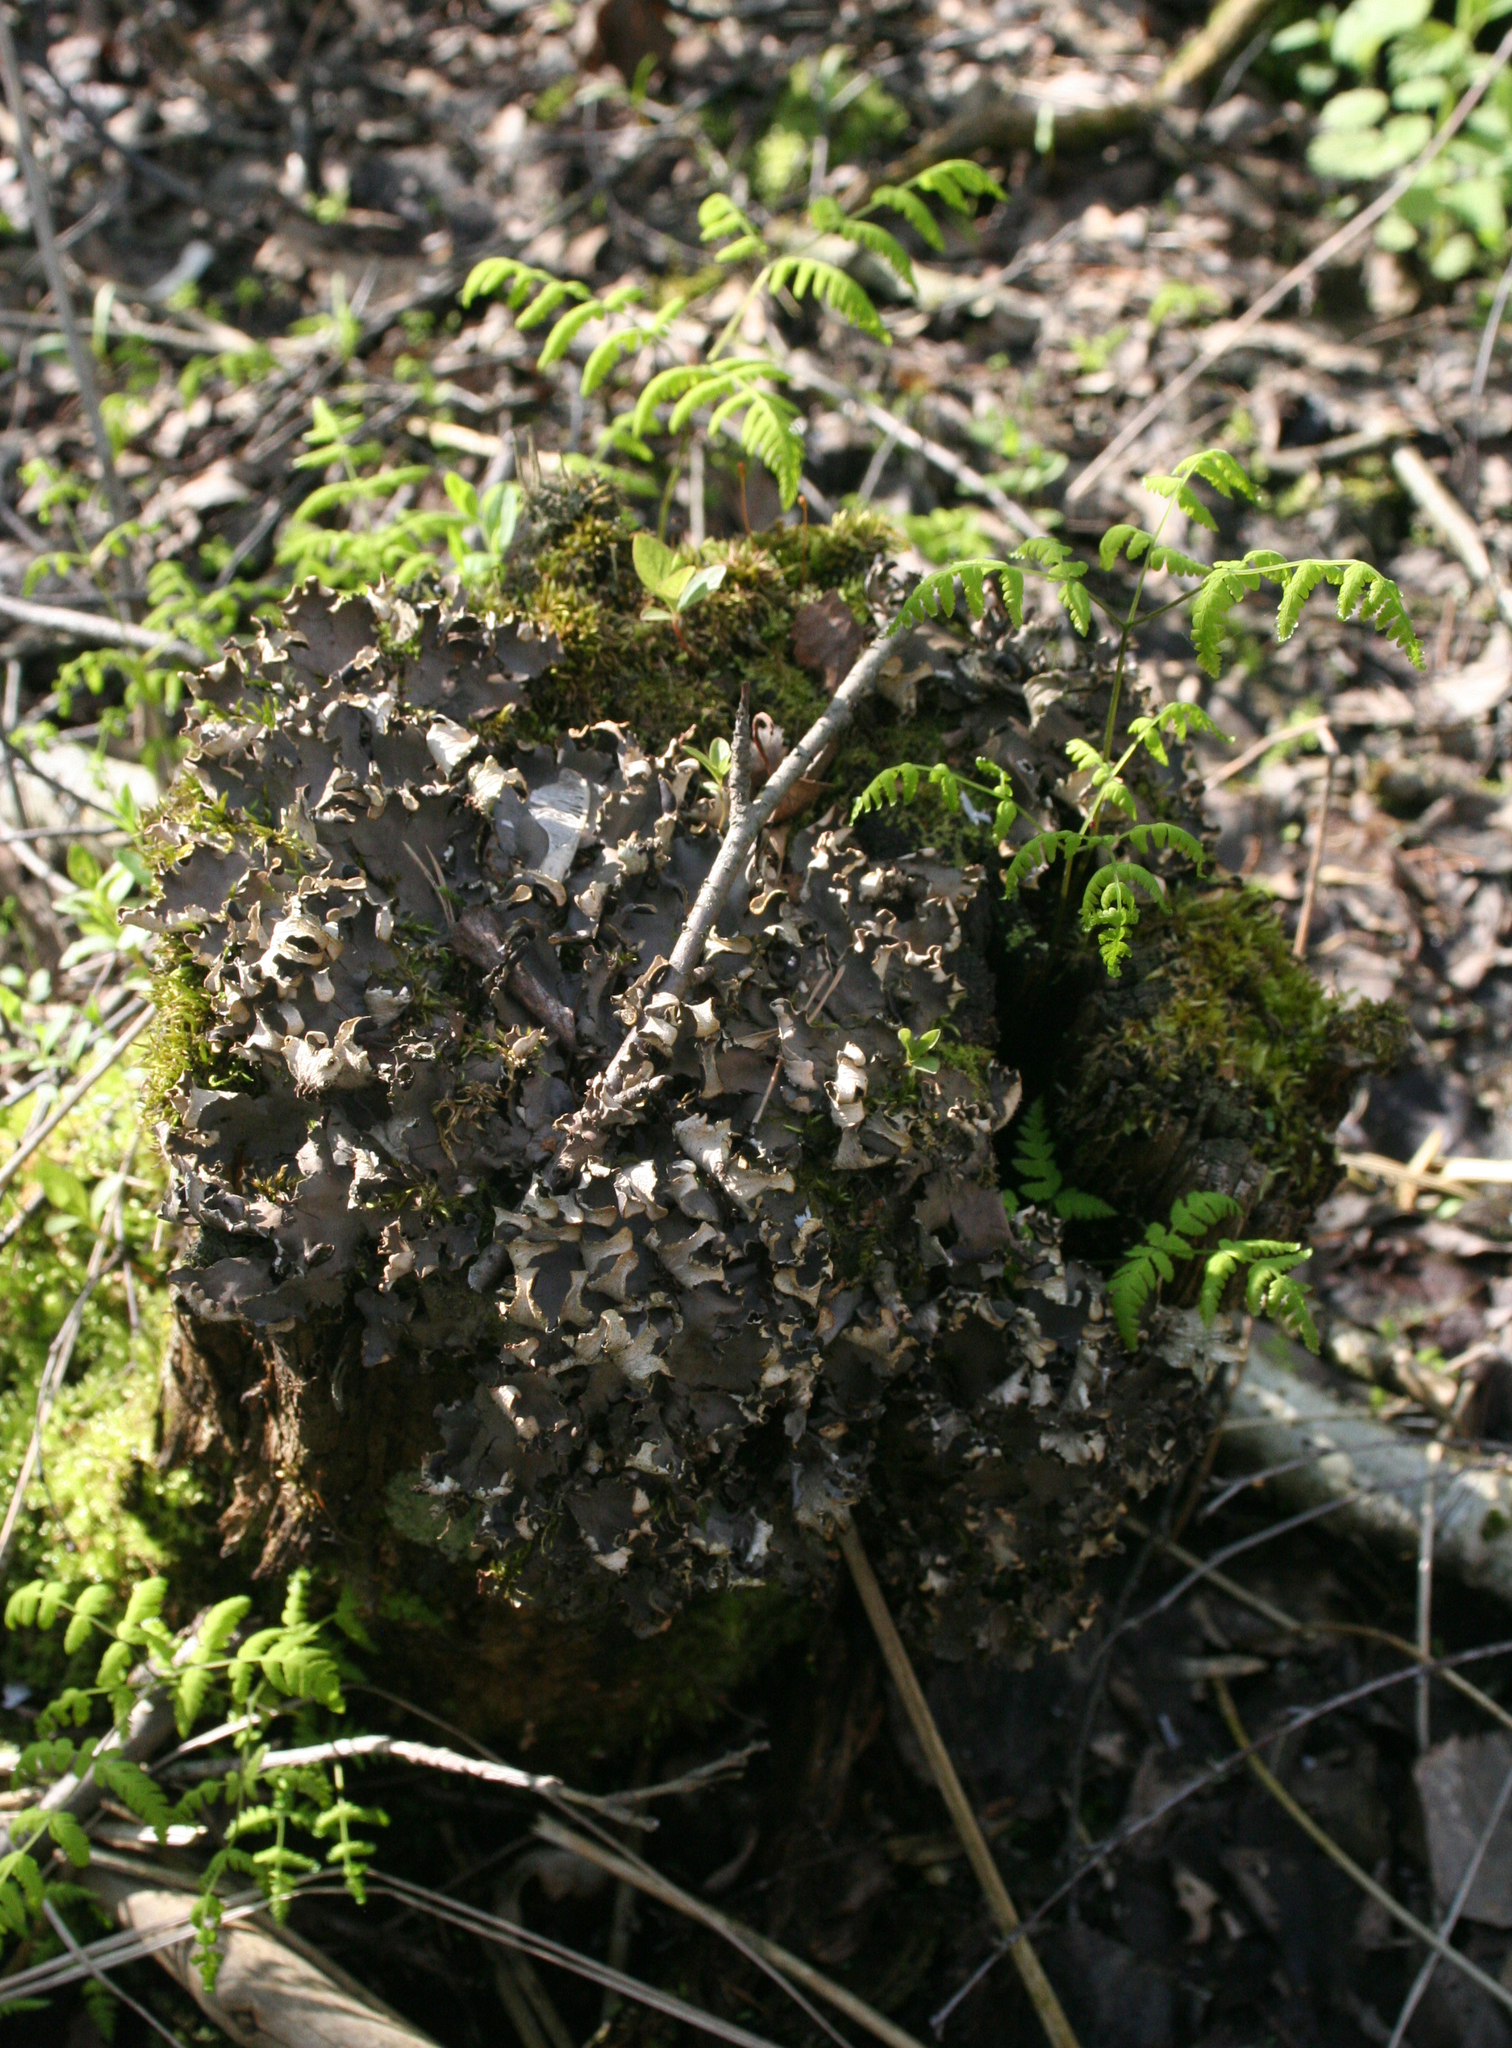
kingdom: Plantae
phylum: Tracheophyta
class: Polypodiopsida
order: Polypodiales
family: Cystopteridaceae
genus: Gymnocarpium
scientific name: Gymnocarpium dryopteris
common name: Oak fern
